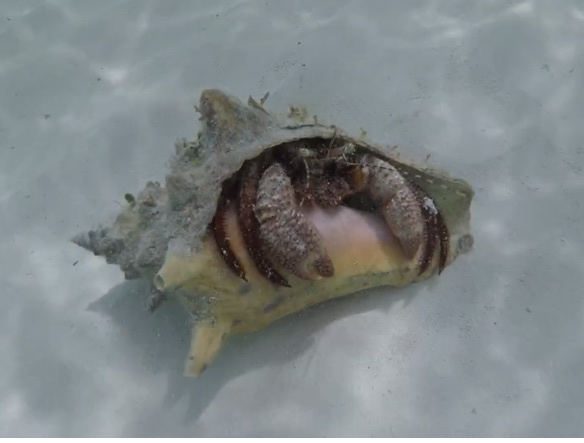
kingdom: Animalia
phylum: Arthropoda
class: Malacostraca
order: Decapoda
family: Diogenidae
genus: Petrochirus
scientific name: Petrochirus diogenes
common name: Giant hermit crab
